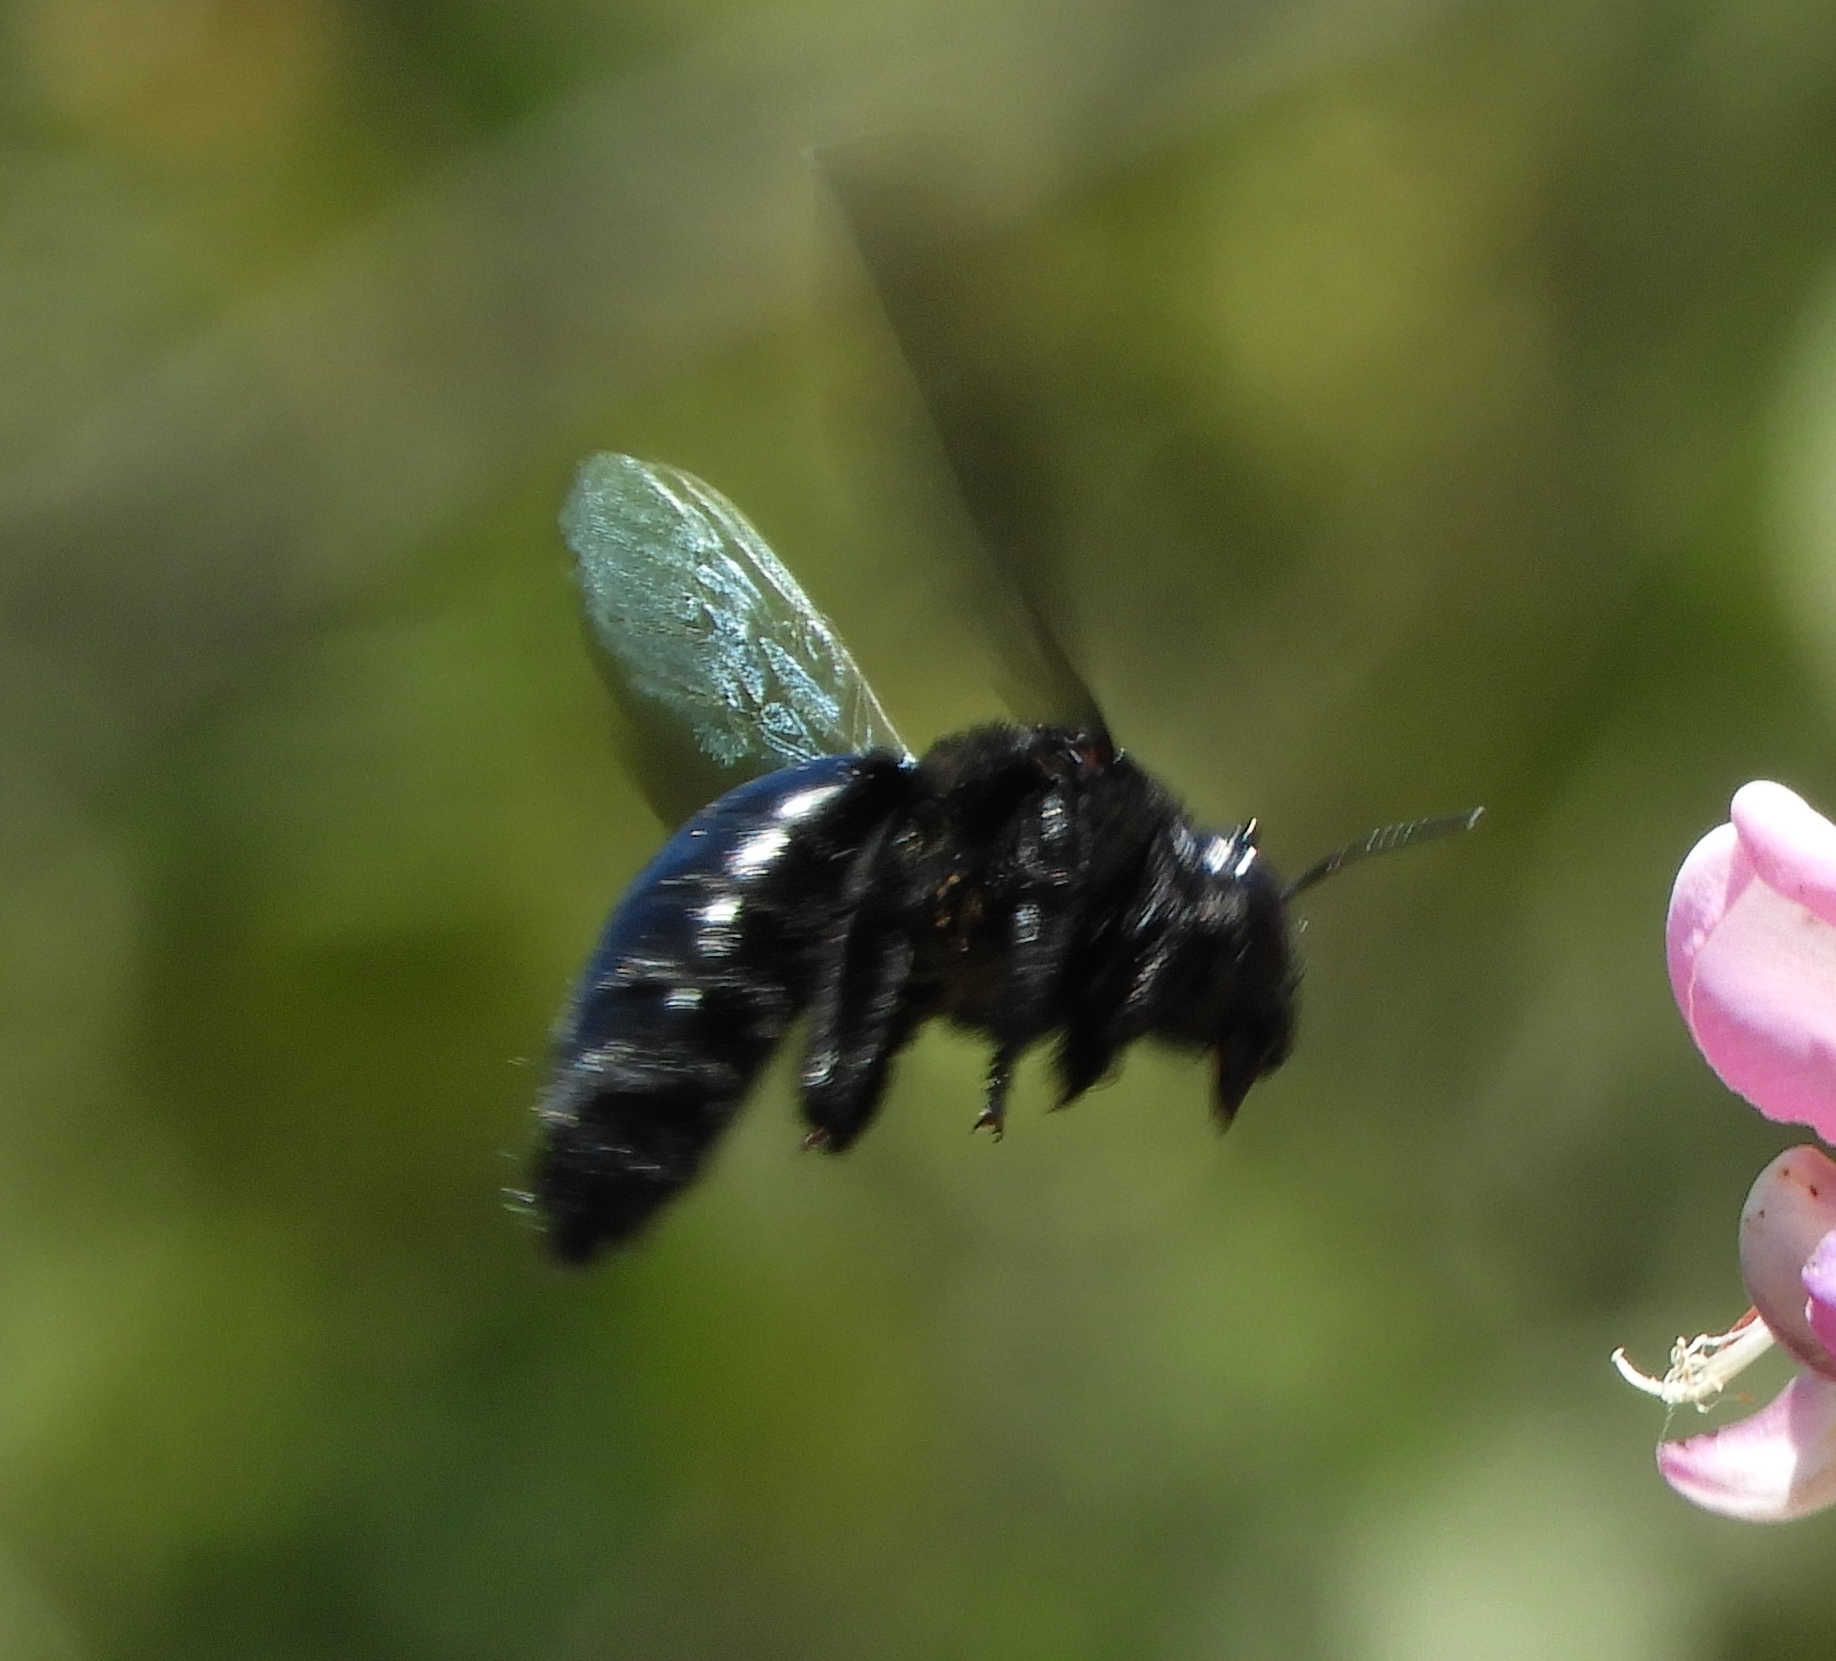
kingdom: Animalia
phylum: Arthropoda
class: Insecta
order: Hymenoptera
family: Apidae
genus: Xylocopa
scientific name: Xylocopa fimbriata
